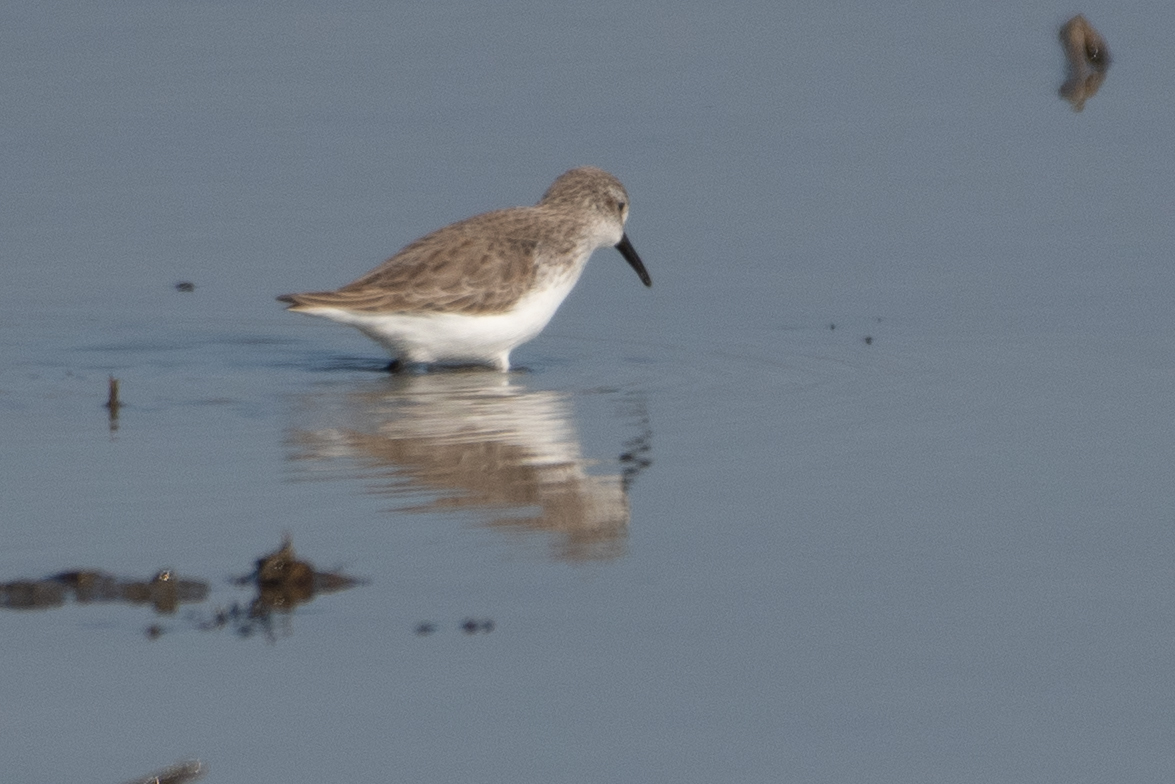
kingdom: Animalia
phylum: Chordata
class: Aves
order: Charadriiformes
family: Scolopacidae
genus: Calidris
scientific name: Calidris mauri
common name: Western sandpiper
